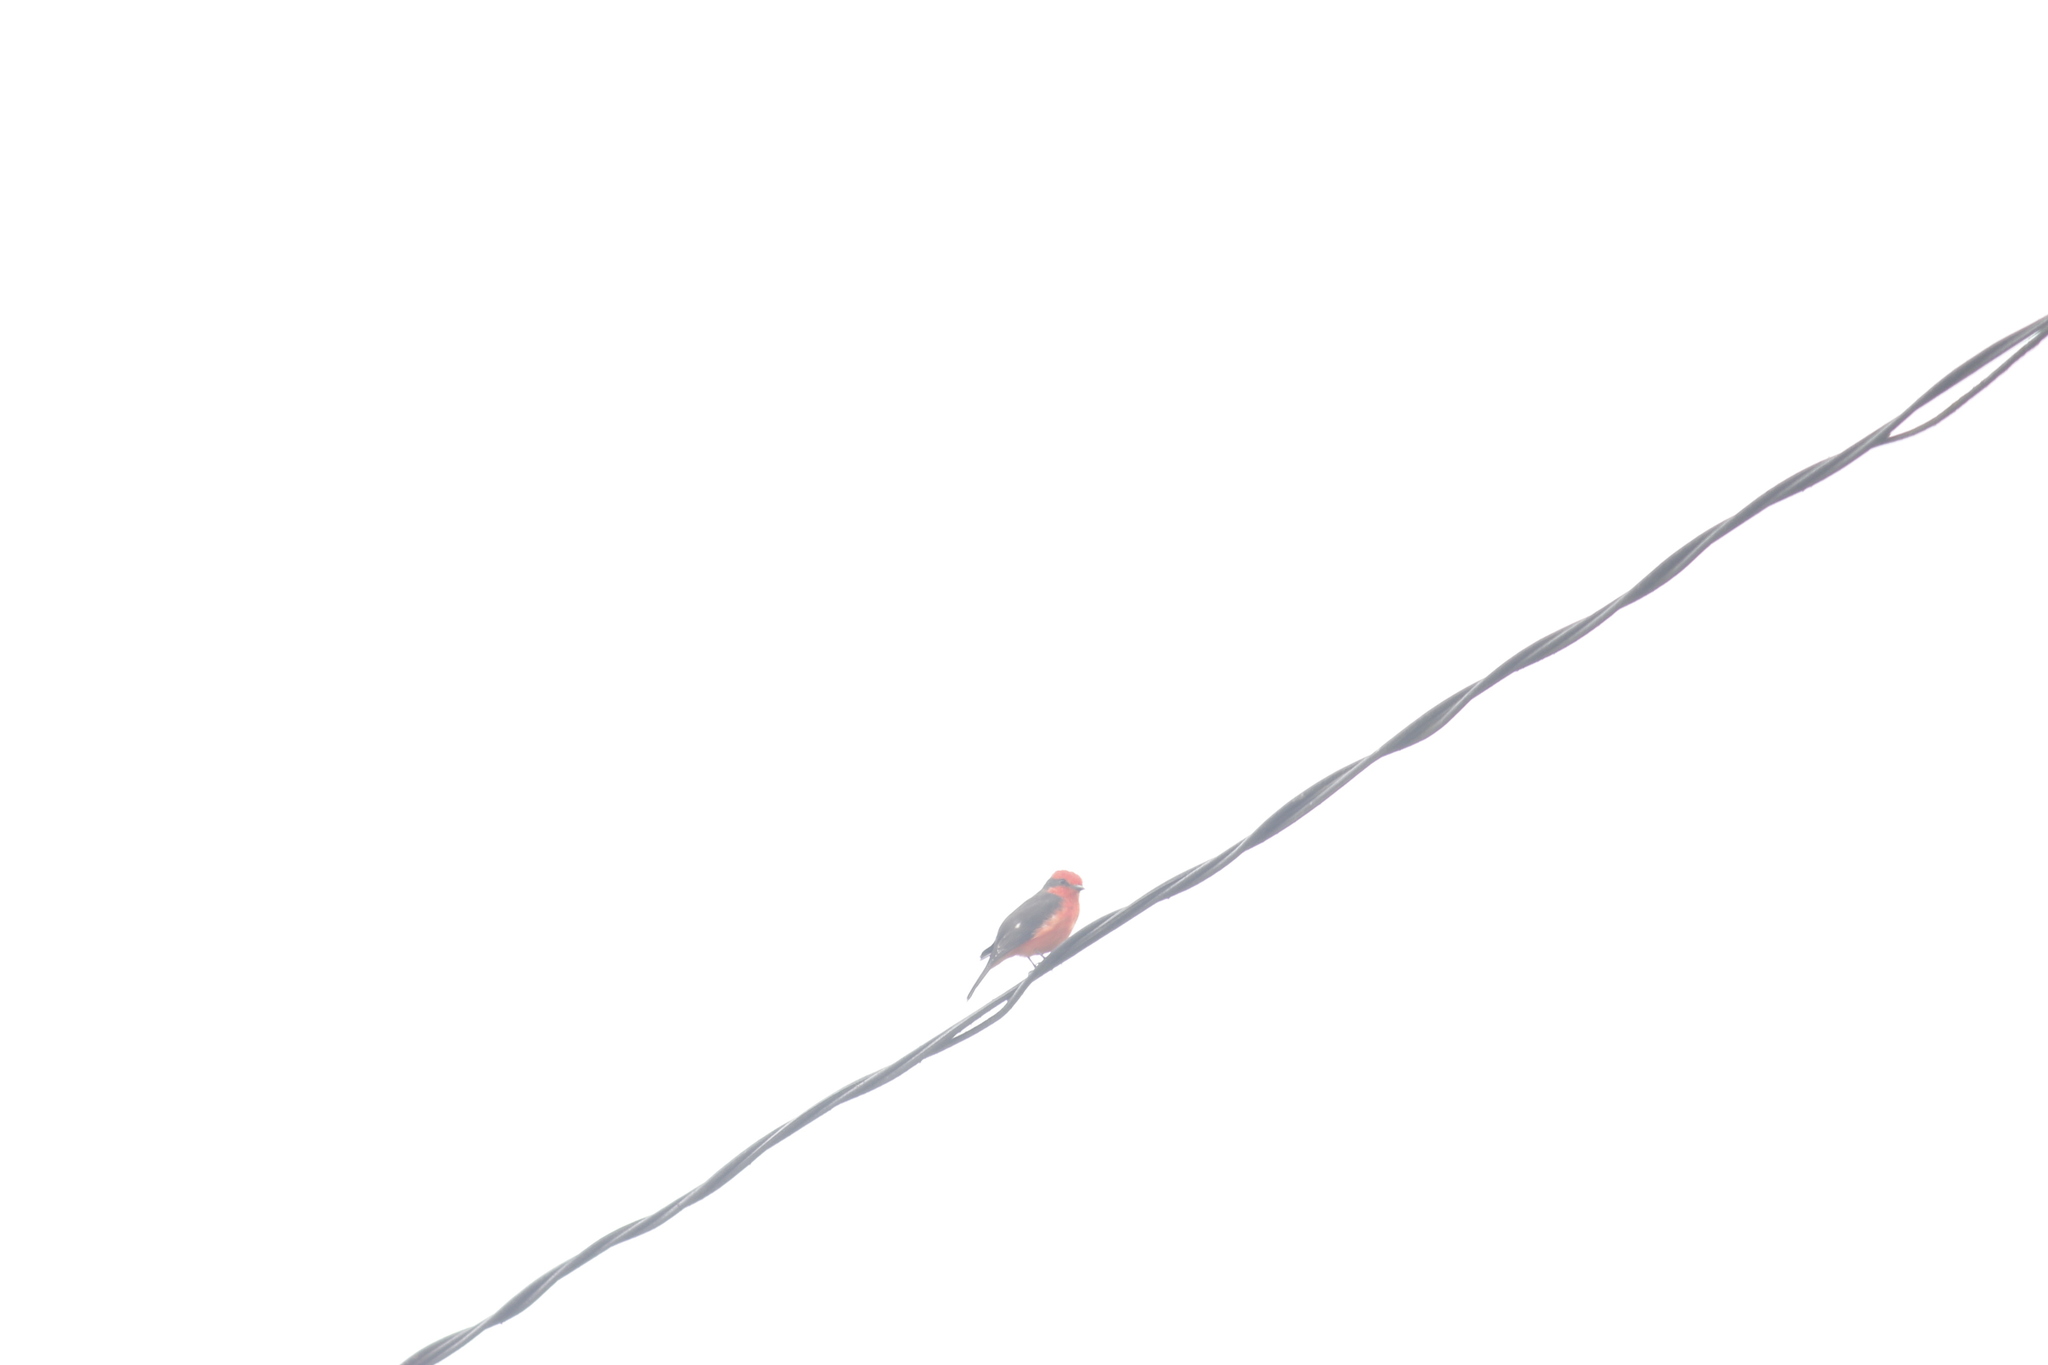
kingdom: Animalia
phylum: Chordata
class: Aves
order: Passeriformes
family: Tyrannidae
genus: Pyrocephalus
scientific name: Pyrocephalus rubinus
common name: Vermilion flycatcher
